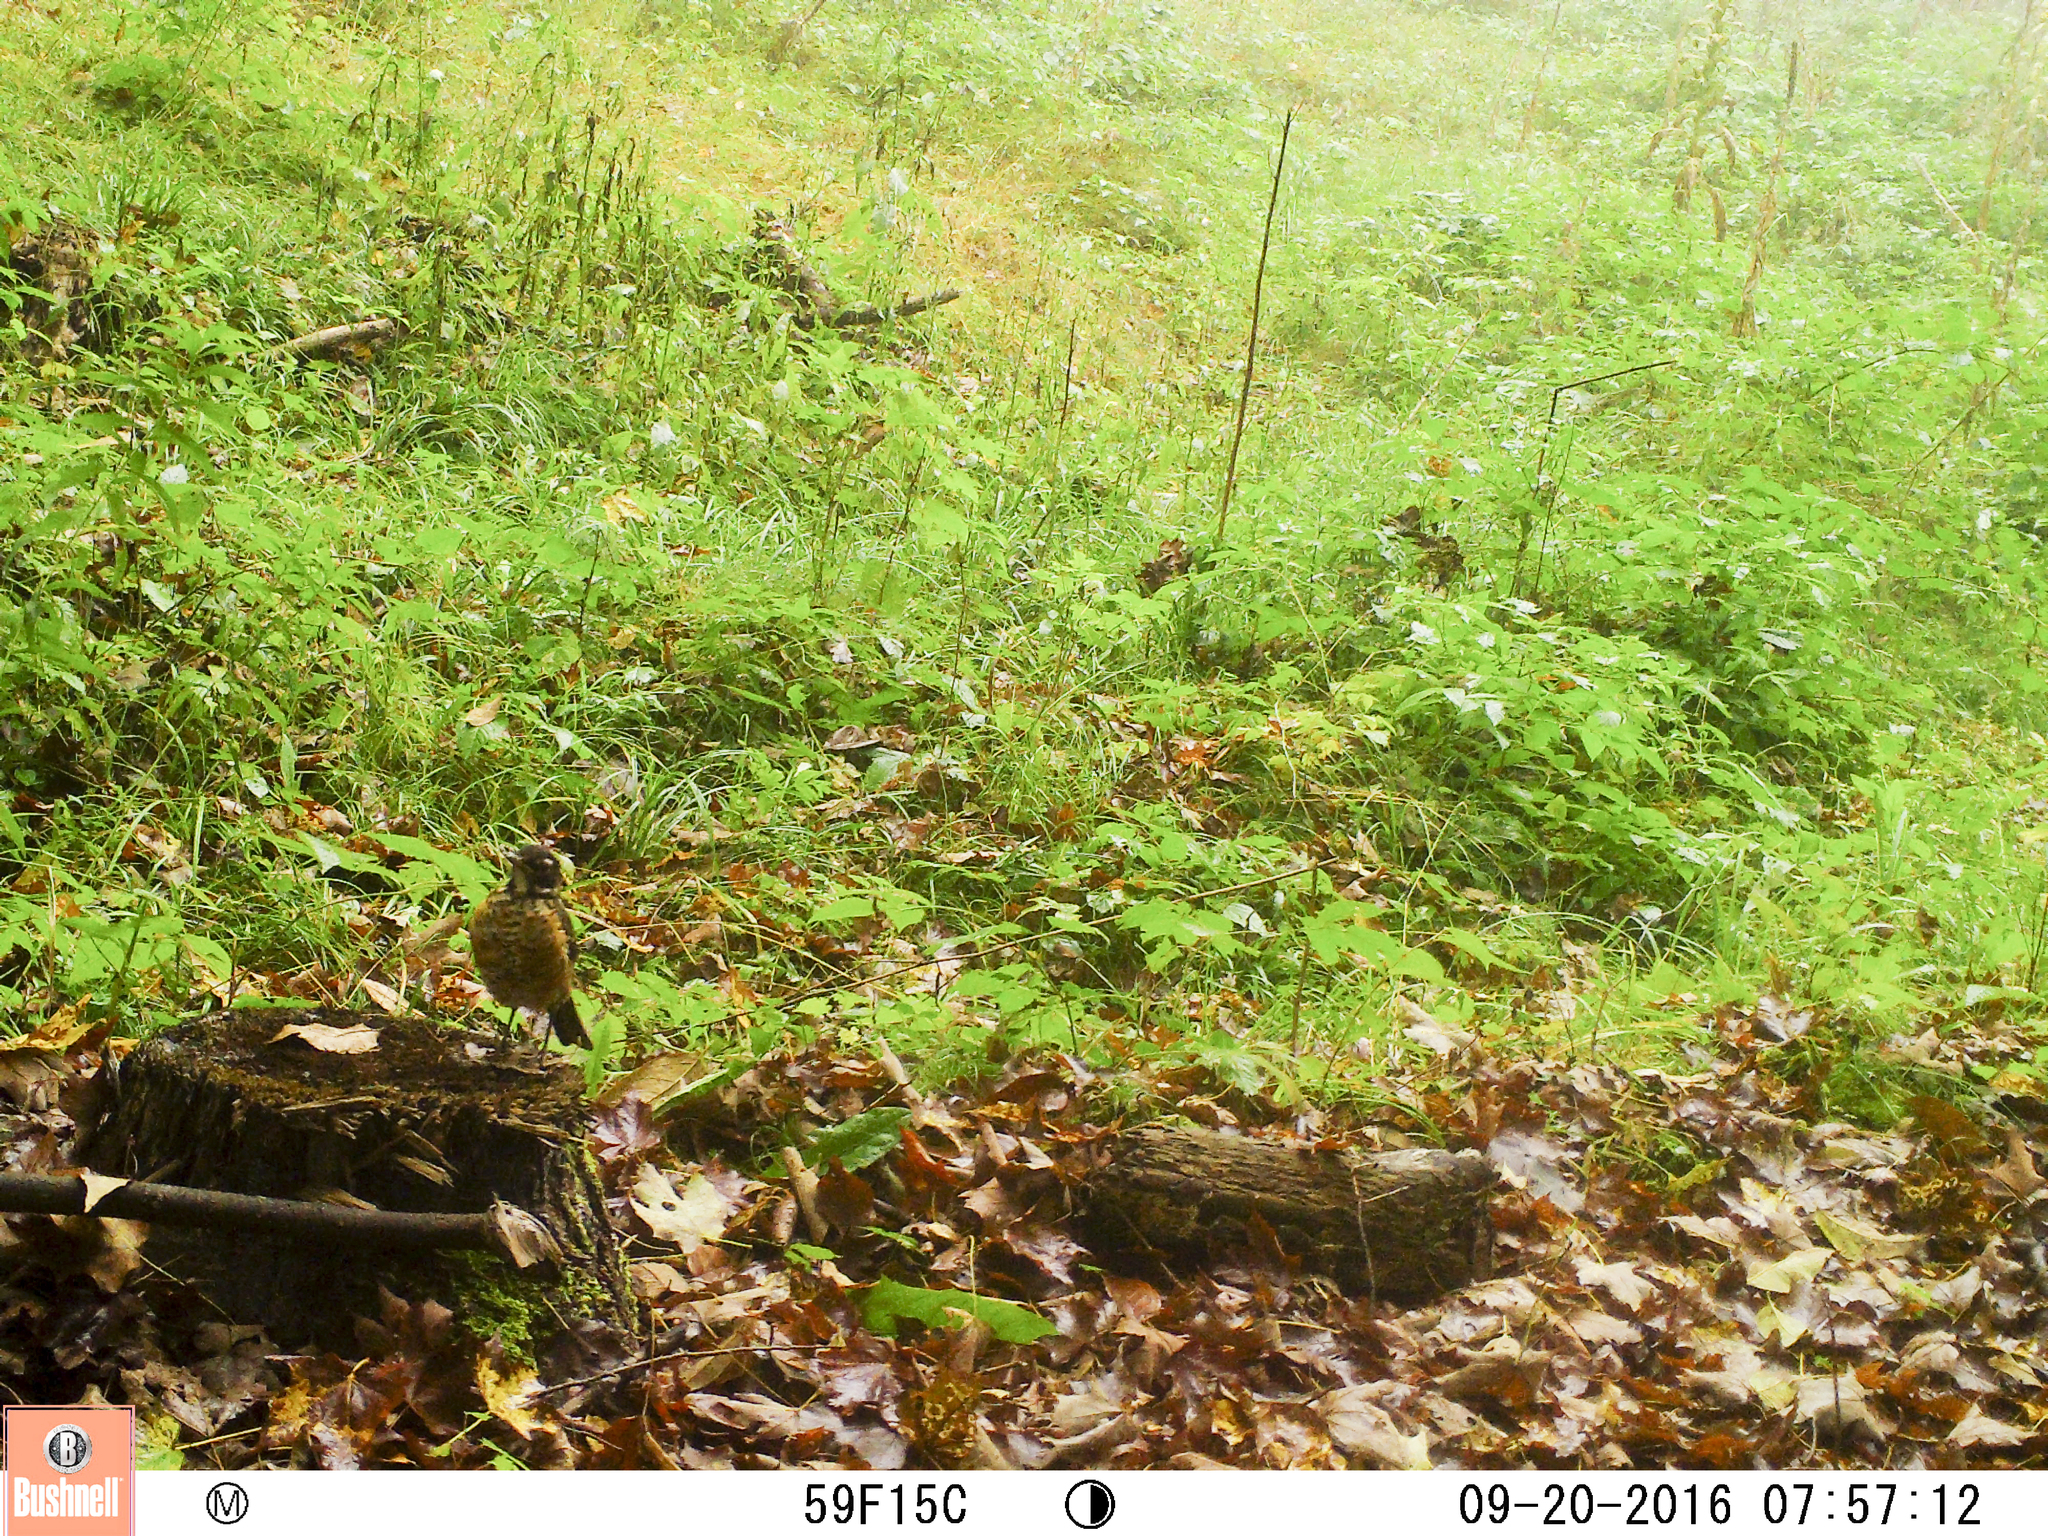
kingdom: Animalia
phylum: Chordata
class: Aves
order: Passeriformes
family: Turdidae
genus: Turdus
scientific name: Turdus migratorius
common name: American robin
